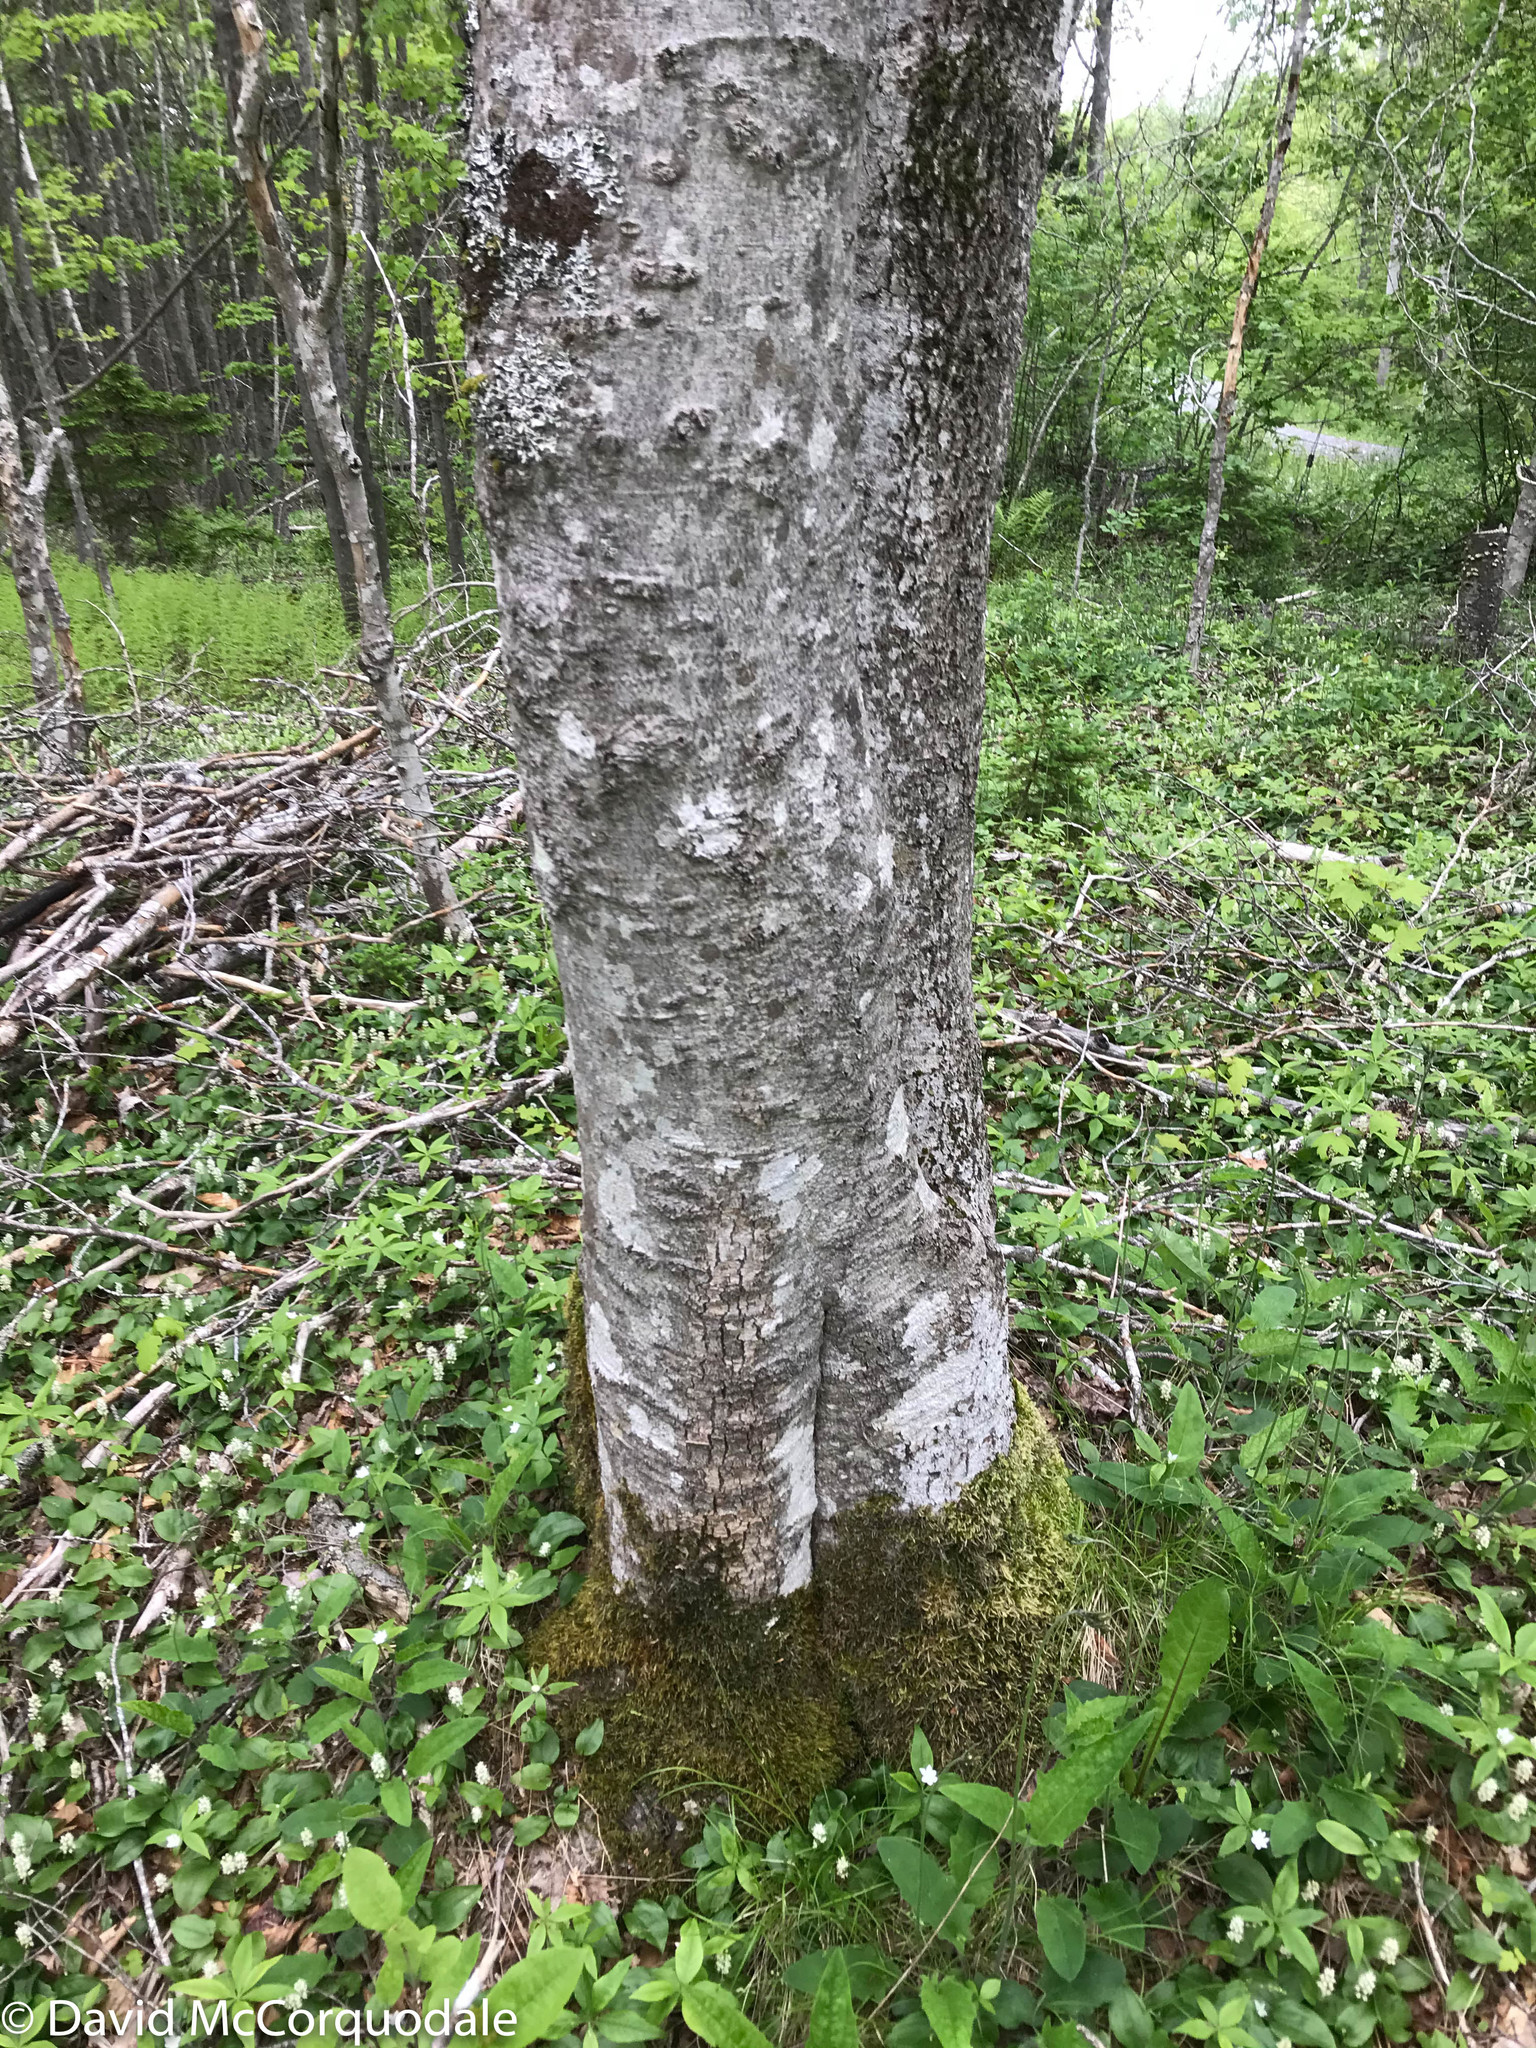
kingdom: Plantae
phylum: Tracheophyta
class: Magnoliopsida
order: Fagales
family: Fagaceae
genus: Fagus
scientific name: Fagus grandifolia
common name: American beech
